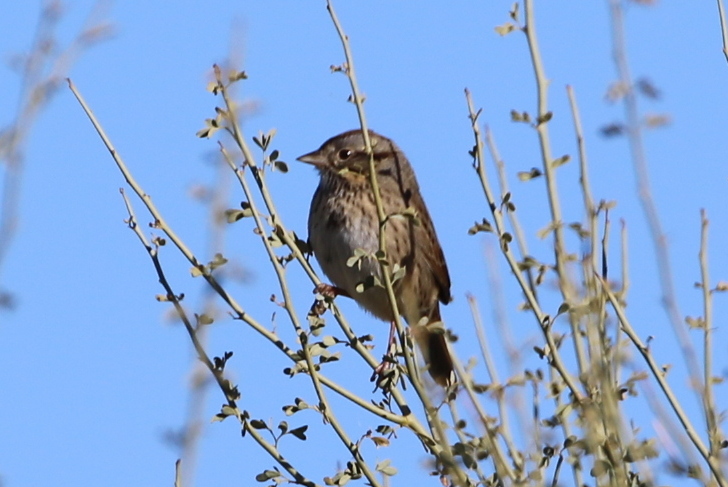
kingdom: Animalia
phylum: Chordata
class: Aves
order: Passeriformes
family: Passerellidae
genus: Melospiza
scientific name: Melospiza lincolnii
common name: Lincoln's sparrow
